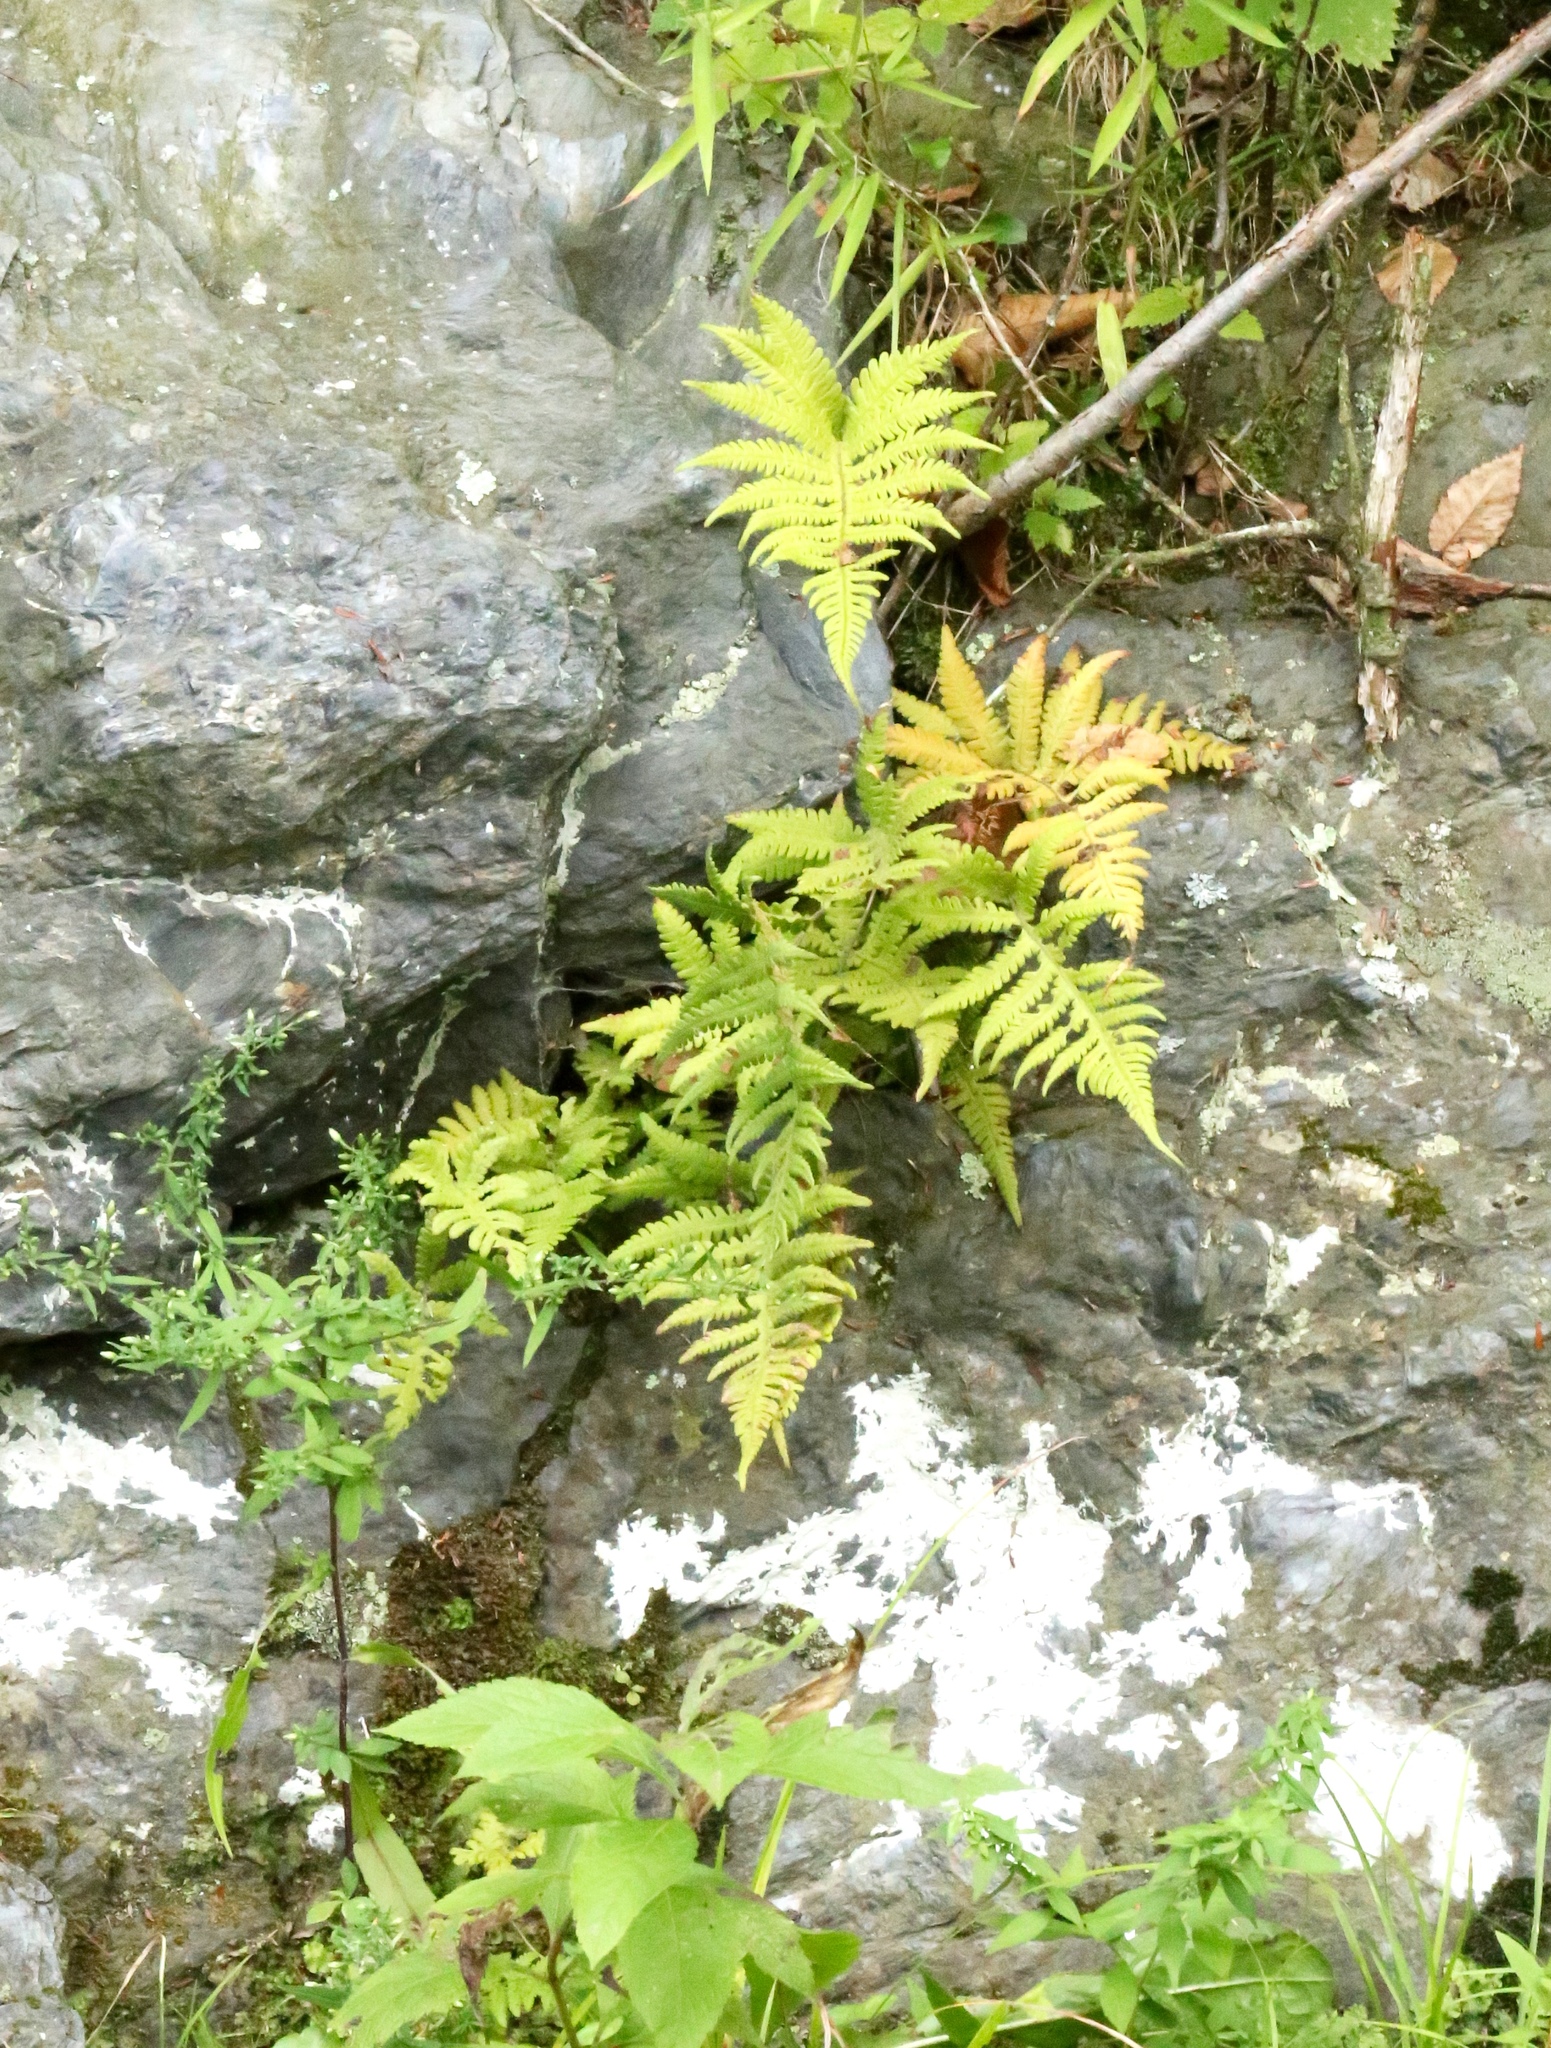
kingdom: Plantae
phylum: Tracheophyta
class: Polypodiopsida
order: Polypodiales
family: Thelypteridaceae
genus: Phegopteris
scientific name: Phegopteris connectilis
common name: Beech fern
